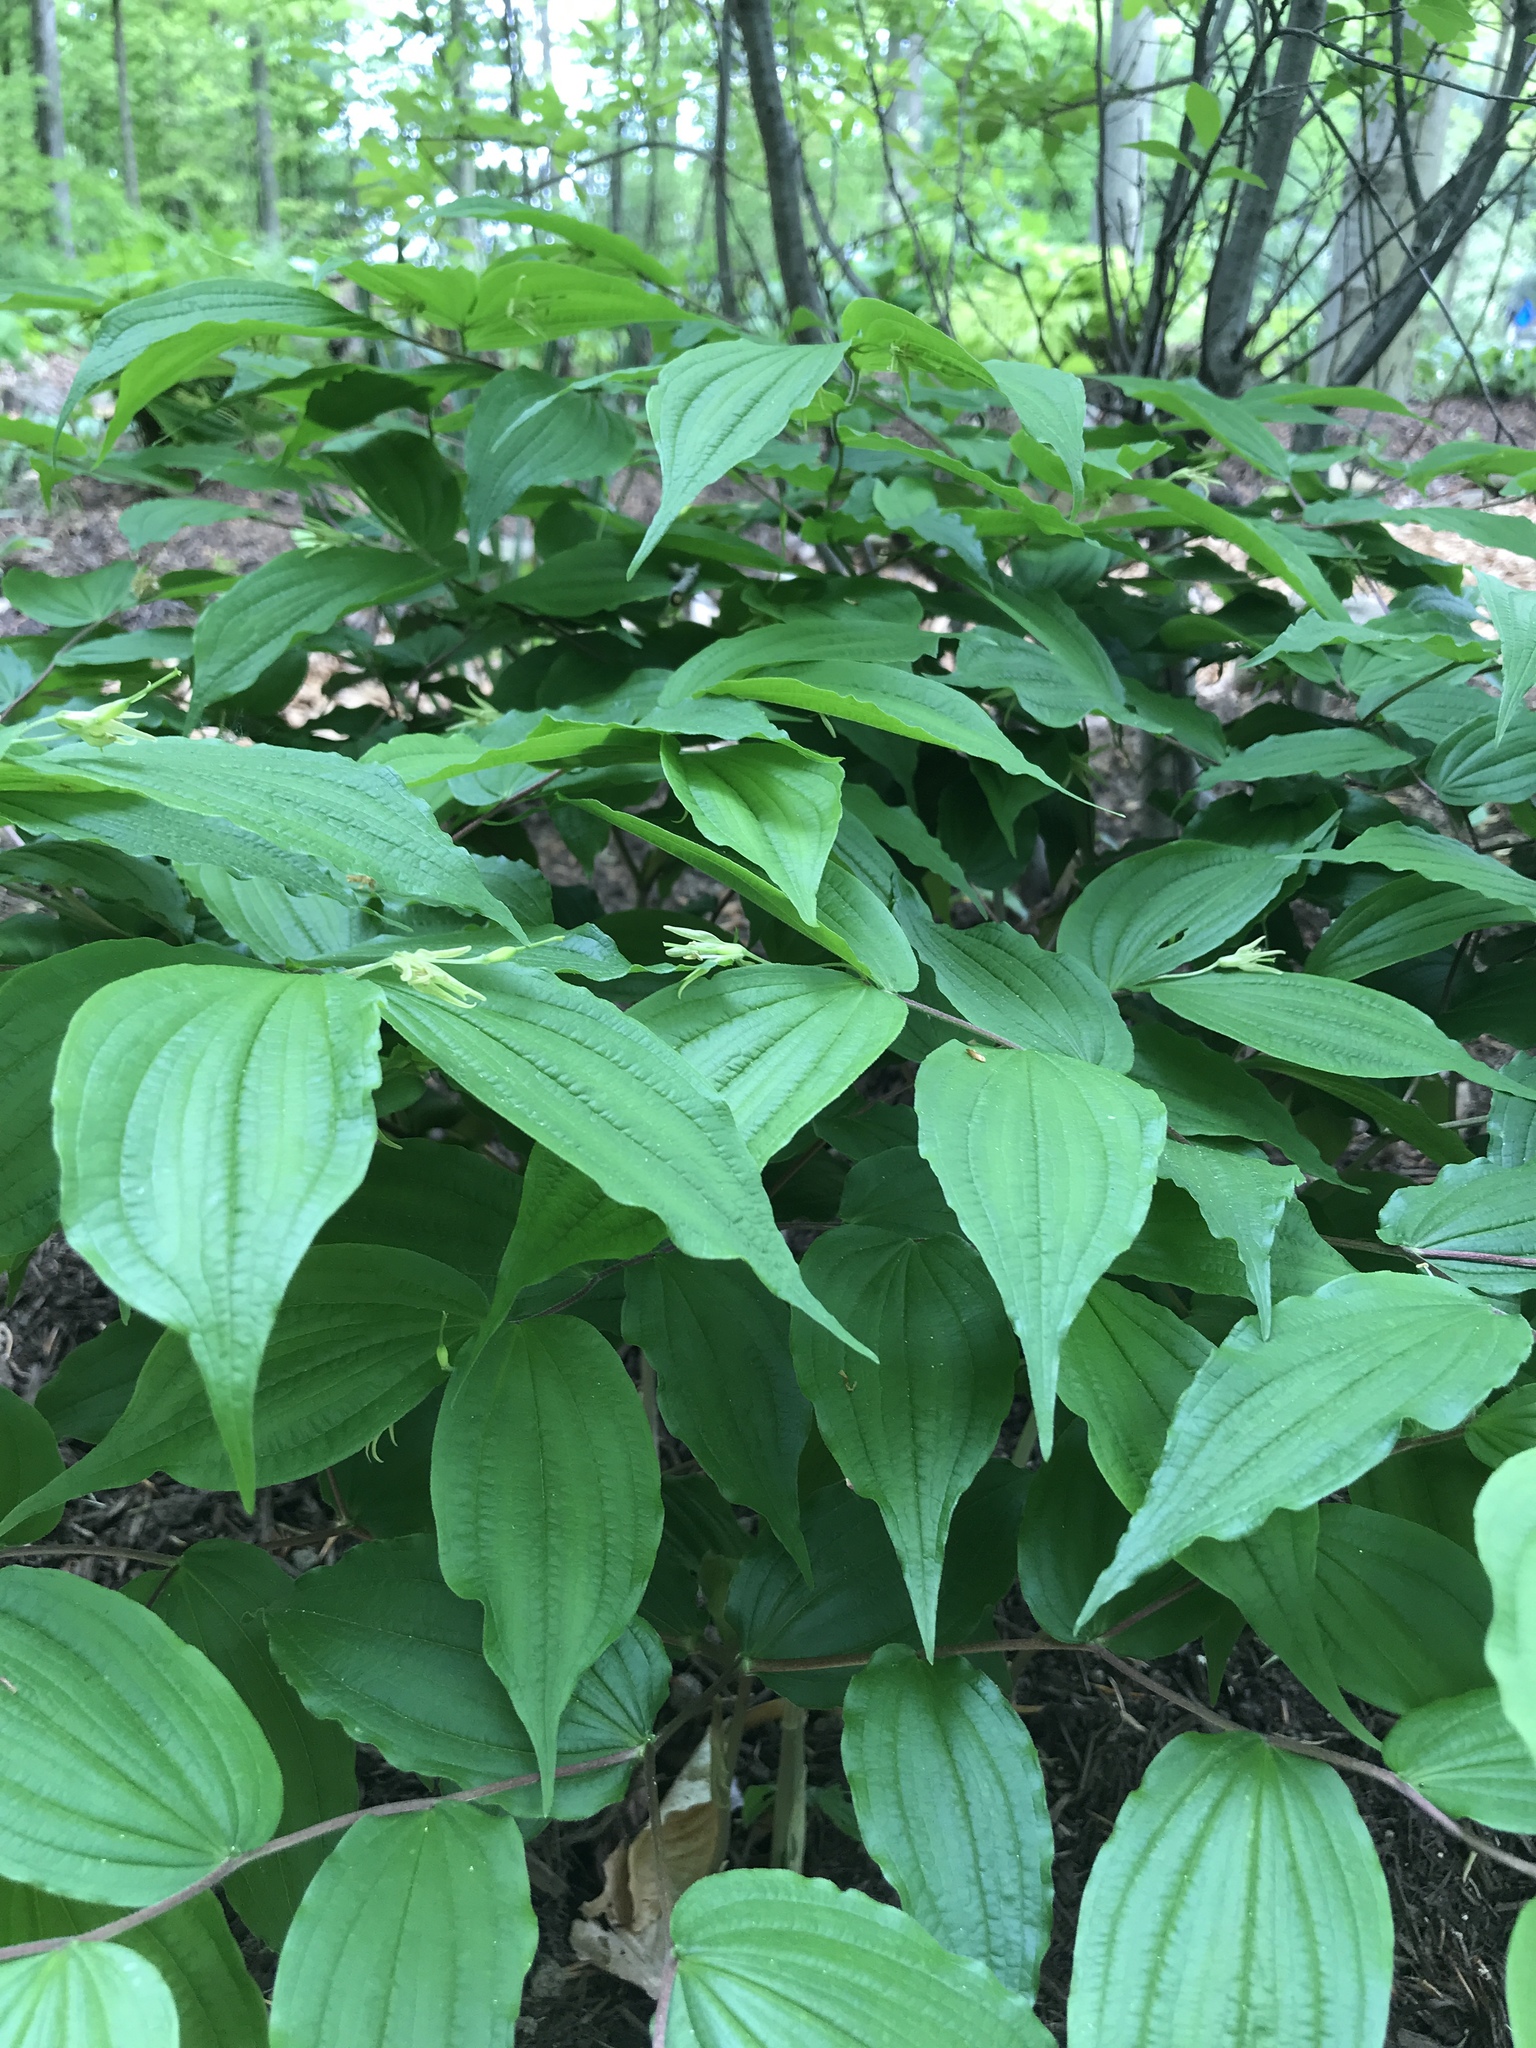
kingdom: Plantae
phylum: Tracheophyta
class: Liliopsida
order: Liliales
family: Liliaceae
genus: Prosartes
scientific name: Prosartes lanuginosa
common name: Hairy mandarin
